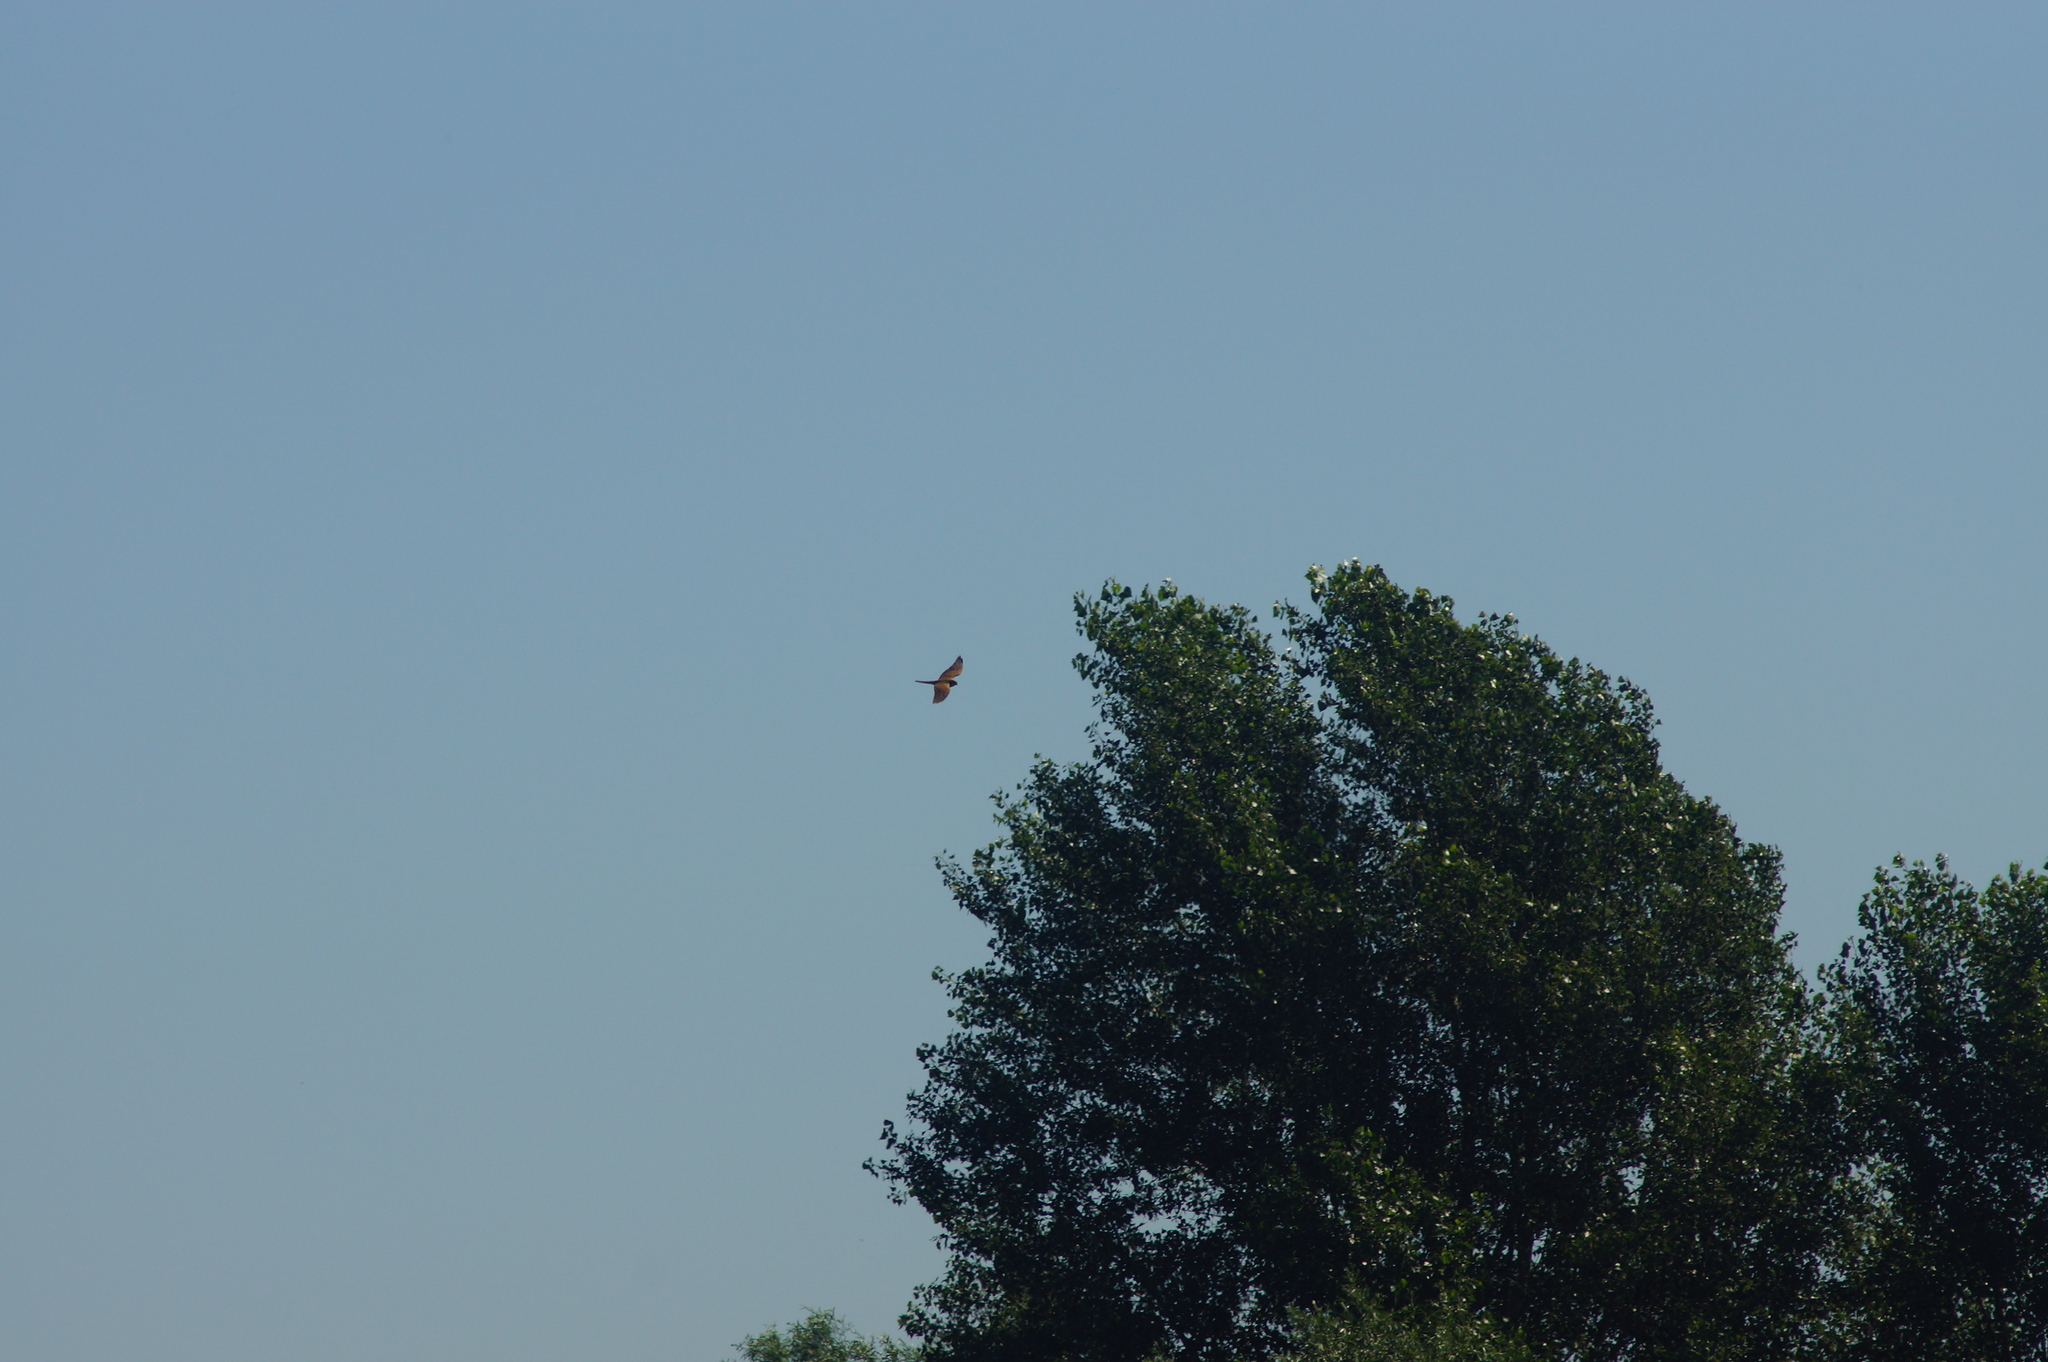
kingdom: Animalia
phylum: Chordata
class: Aves
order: Falconiformes
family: Falconidae
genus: Falco
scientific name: Falco tinnunculus
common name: Common kestrel
